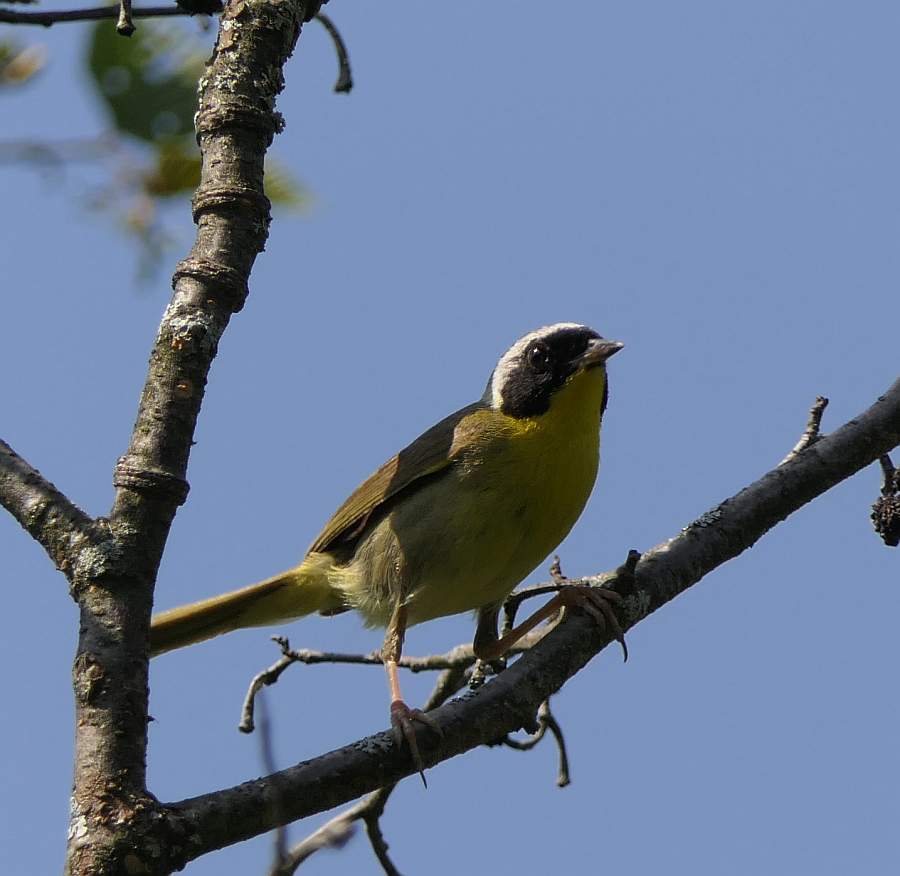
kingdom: Animalia
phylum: Chordata
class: Aves
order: Passeriformes
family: Parulidae
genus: Geothlypis
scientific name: Geothlypis trichas
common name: Common yellowthroat
